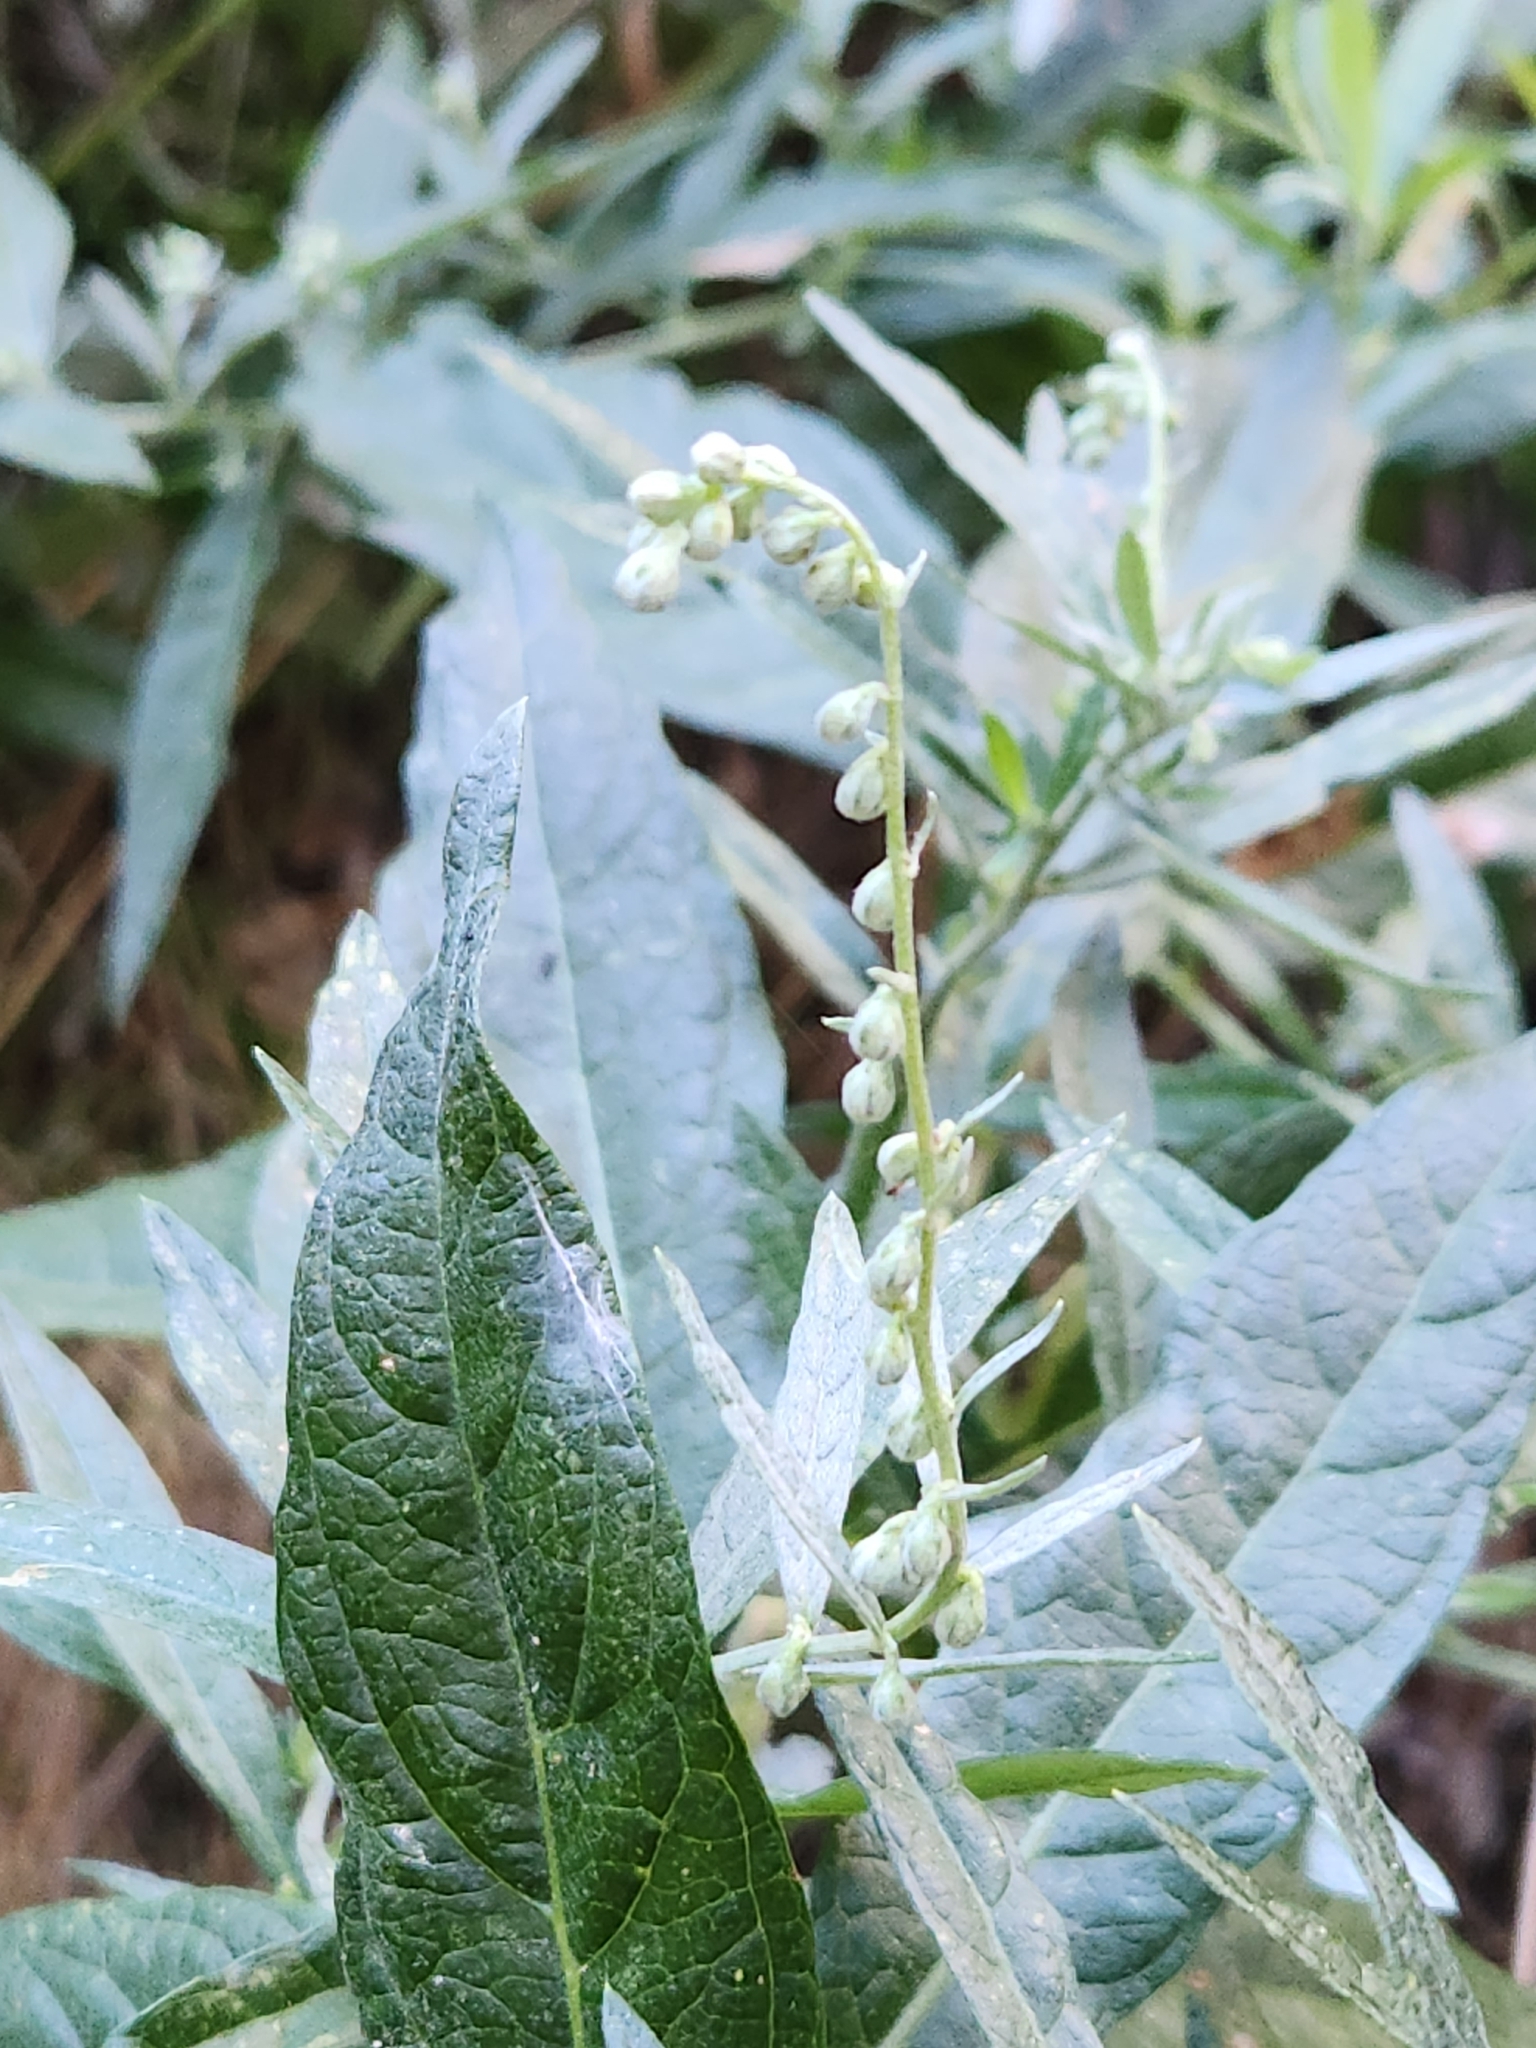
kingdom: Plantae
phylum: Tracheophyta
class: Magnoliopsida
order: Asterales
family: Asteraceae
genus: Artemisia
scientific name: Artemisia douglasiana
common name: Northwest mugwort
